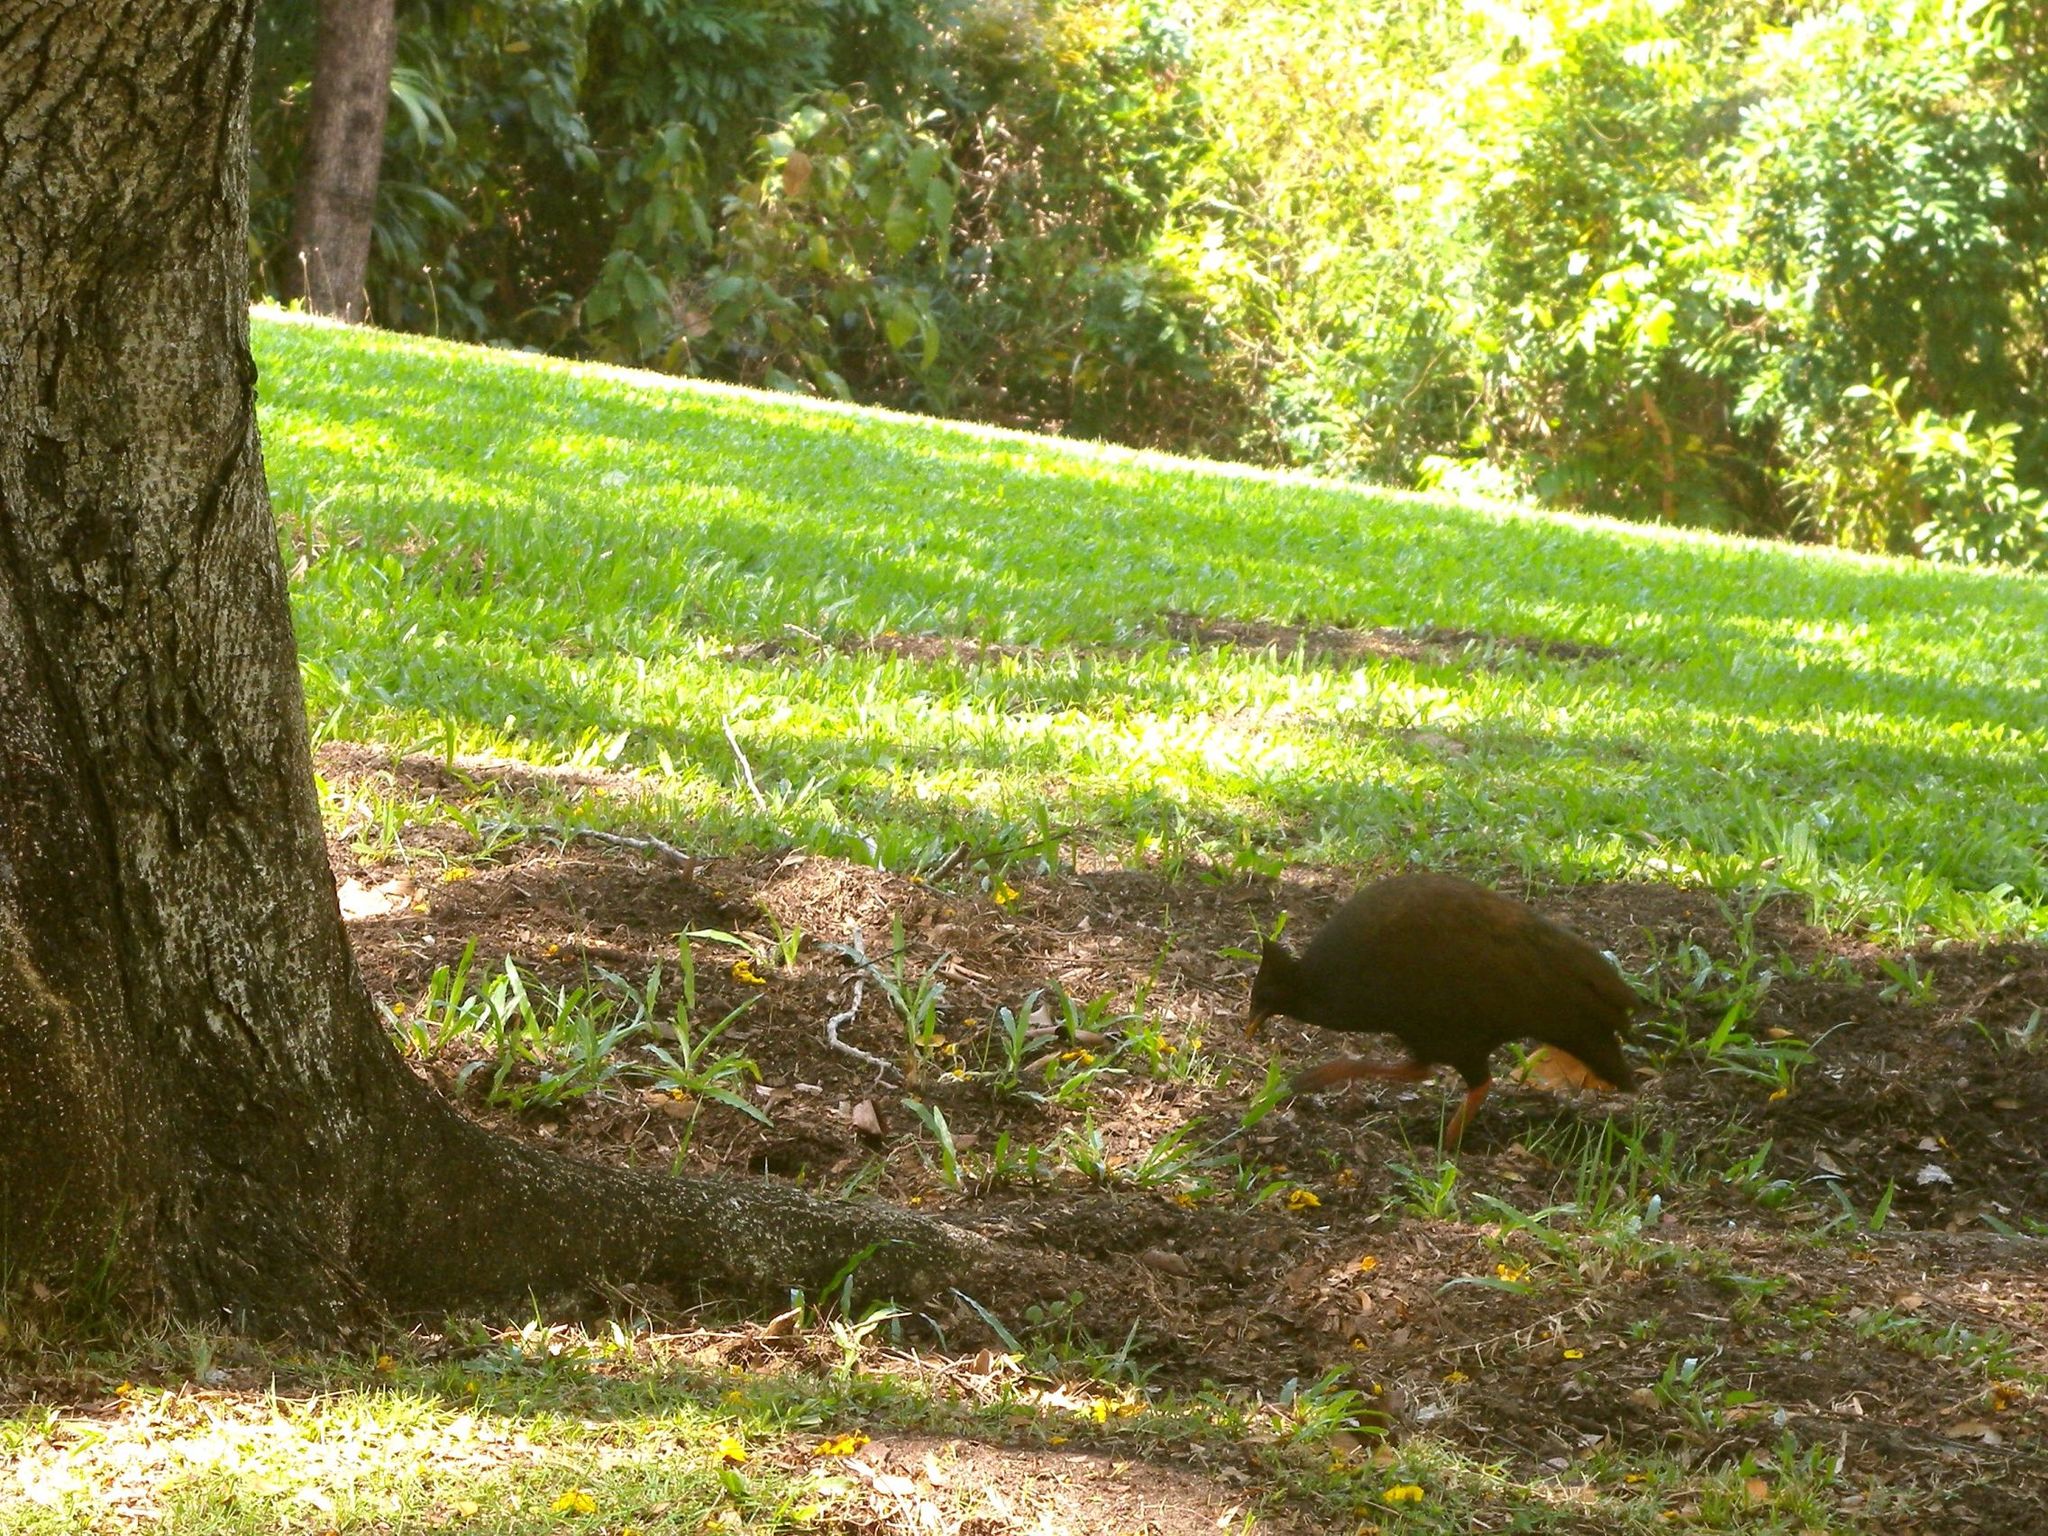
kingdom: Animalia
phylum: Chordata
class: Aves
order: Galliformes
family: Megapodiidae
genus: Megapodius
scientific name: Megapodius reinwardt
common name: Orange-footed scrubfowl
